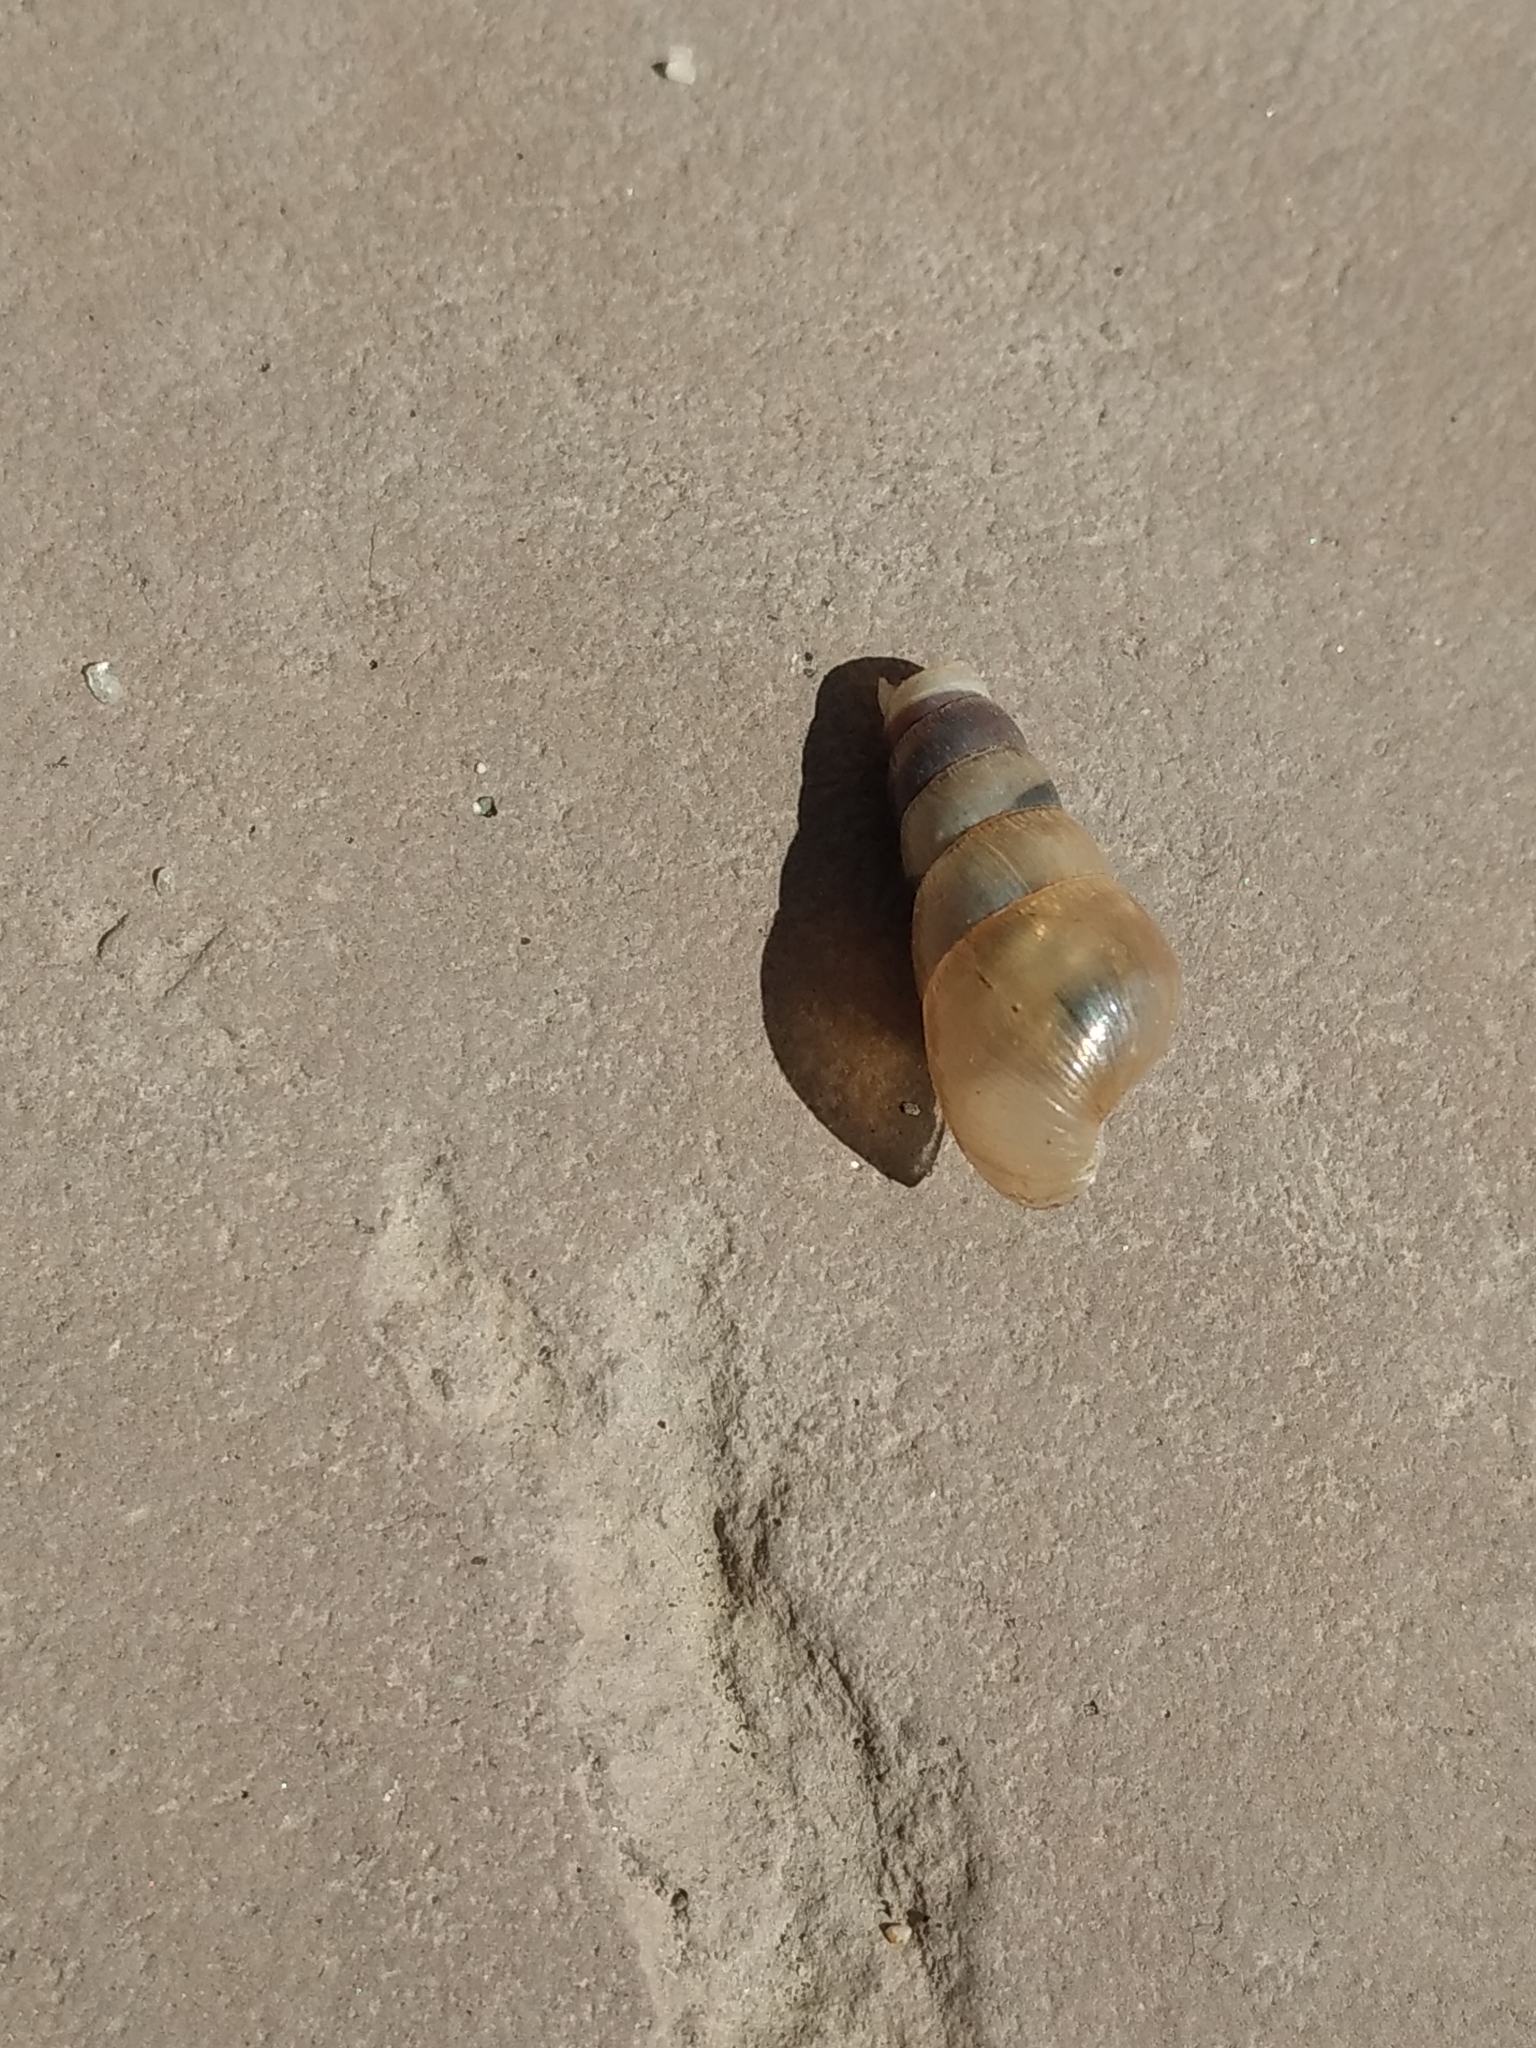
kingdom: Animalia
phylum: Mollusca
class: Gastropoda
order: Stylommatophora
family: Achatinidae
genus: Rumina
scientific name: Rumina decollata
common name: Decollate snail
